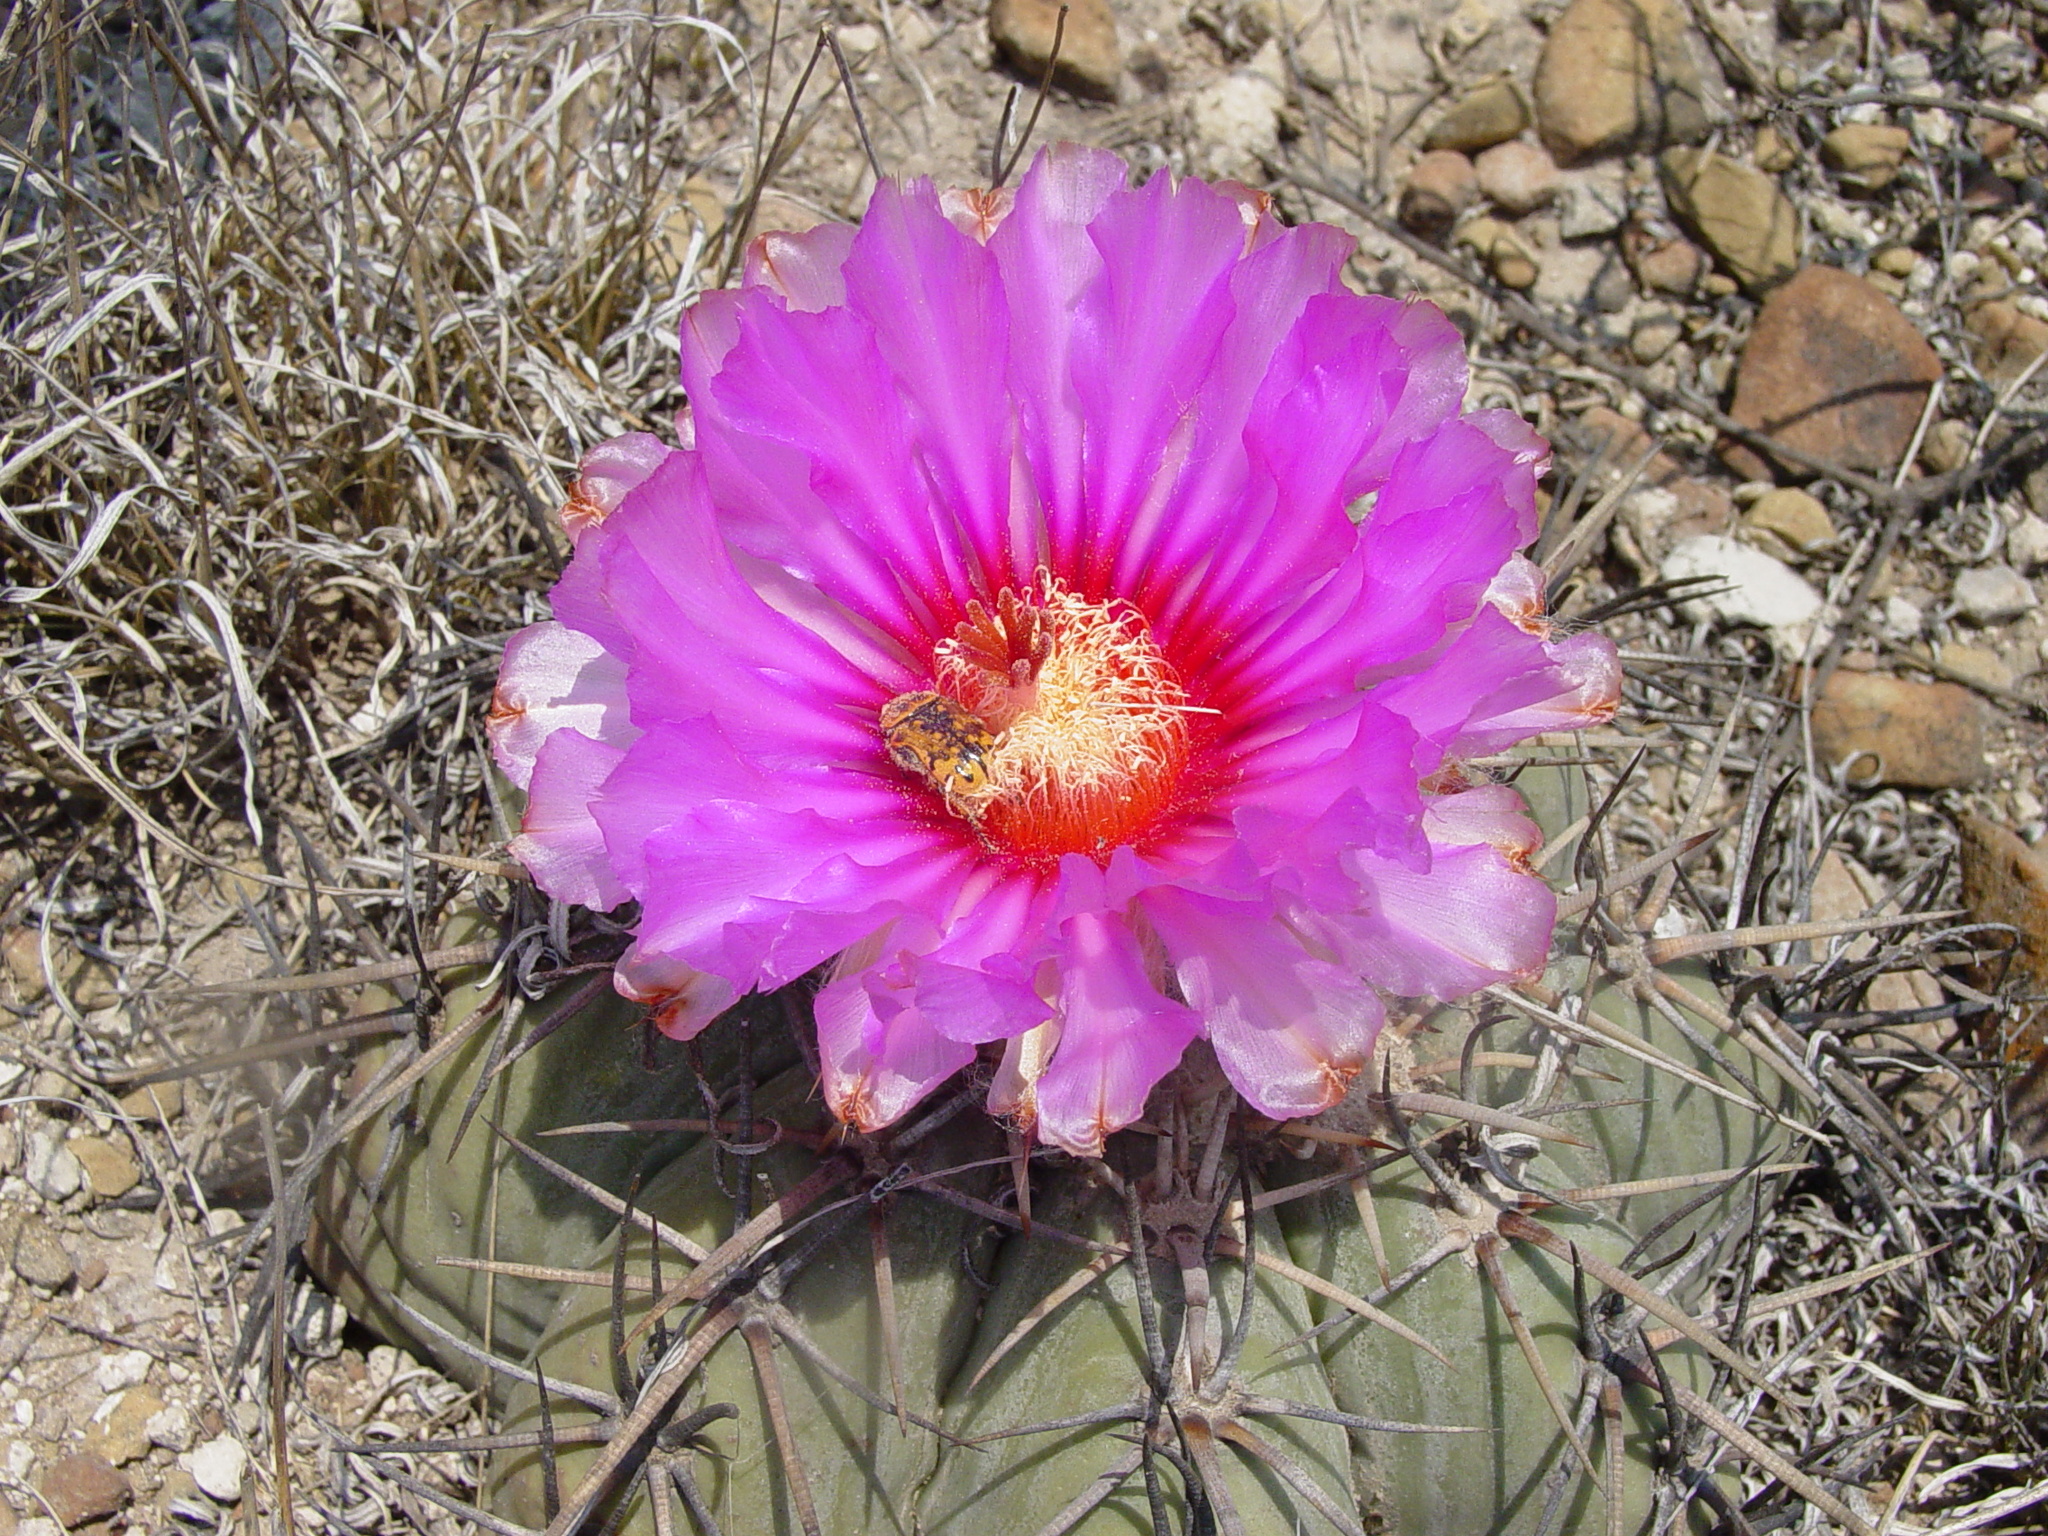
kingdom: Animalia
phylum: Arthropoda
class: Insecta
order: Coleoptera
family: Scarabaeidae
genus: Euphoria
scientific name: Euphoria kernii
